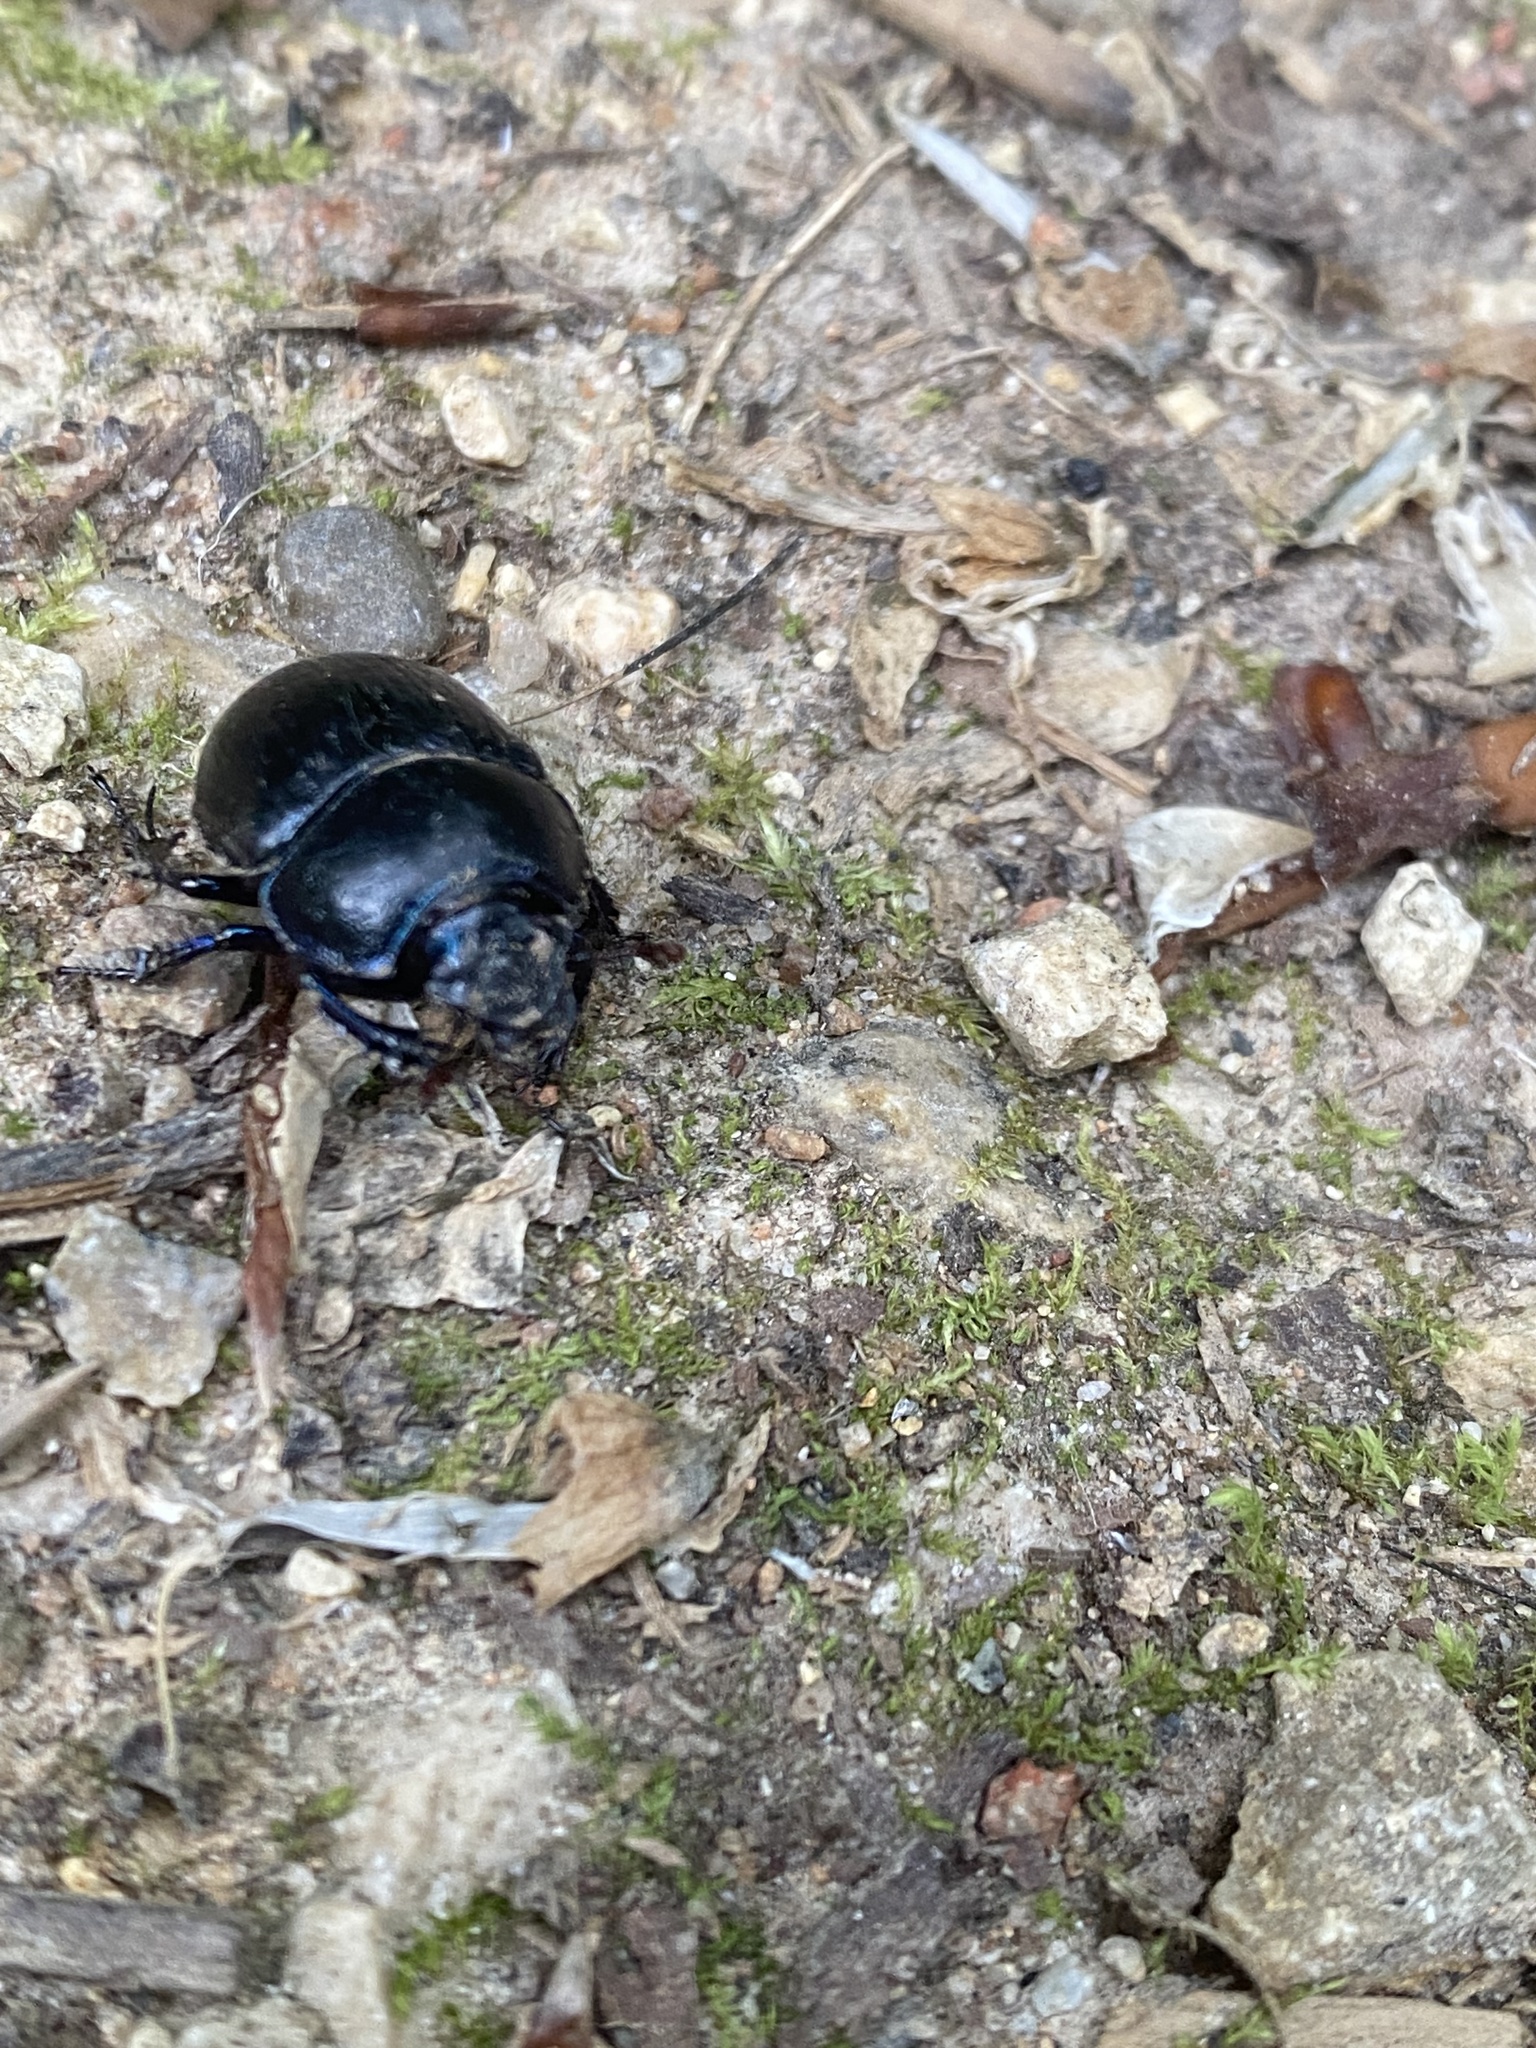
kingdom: Animalia
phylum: Arthropoda
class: Insecta
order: Coleoptera
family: Geotrupidae
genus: Anoplotrupes
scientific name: Anoplotrupes stercorosus
